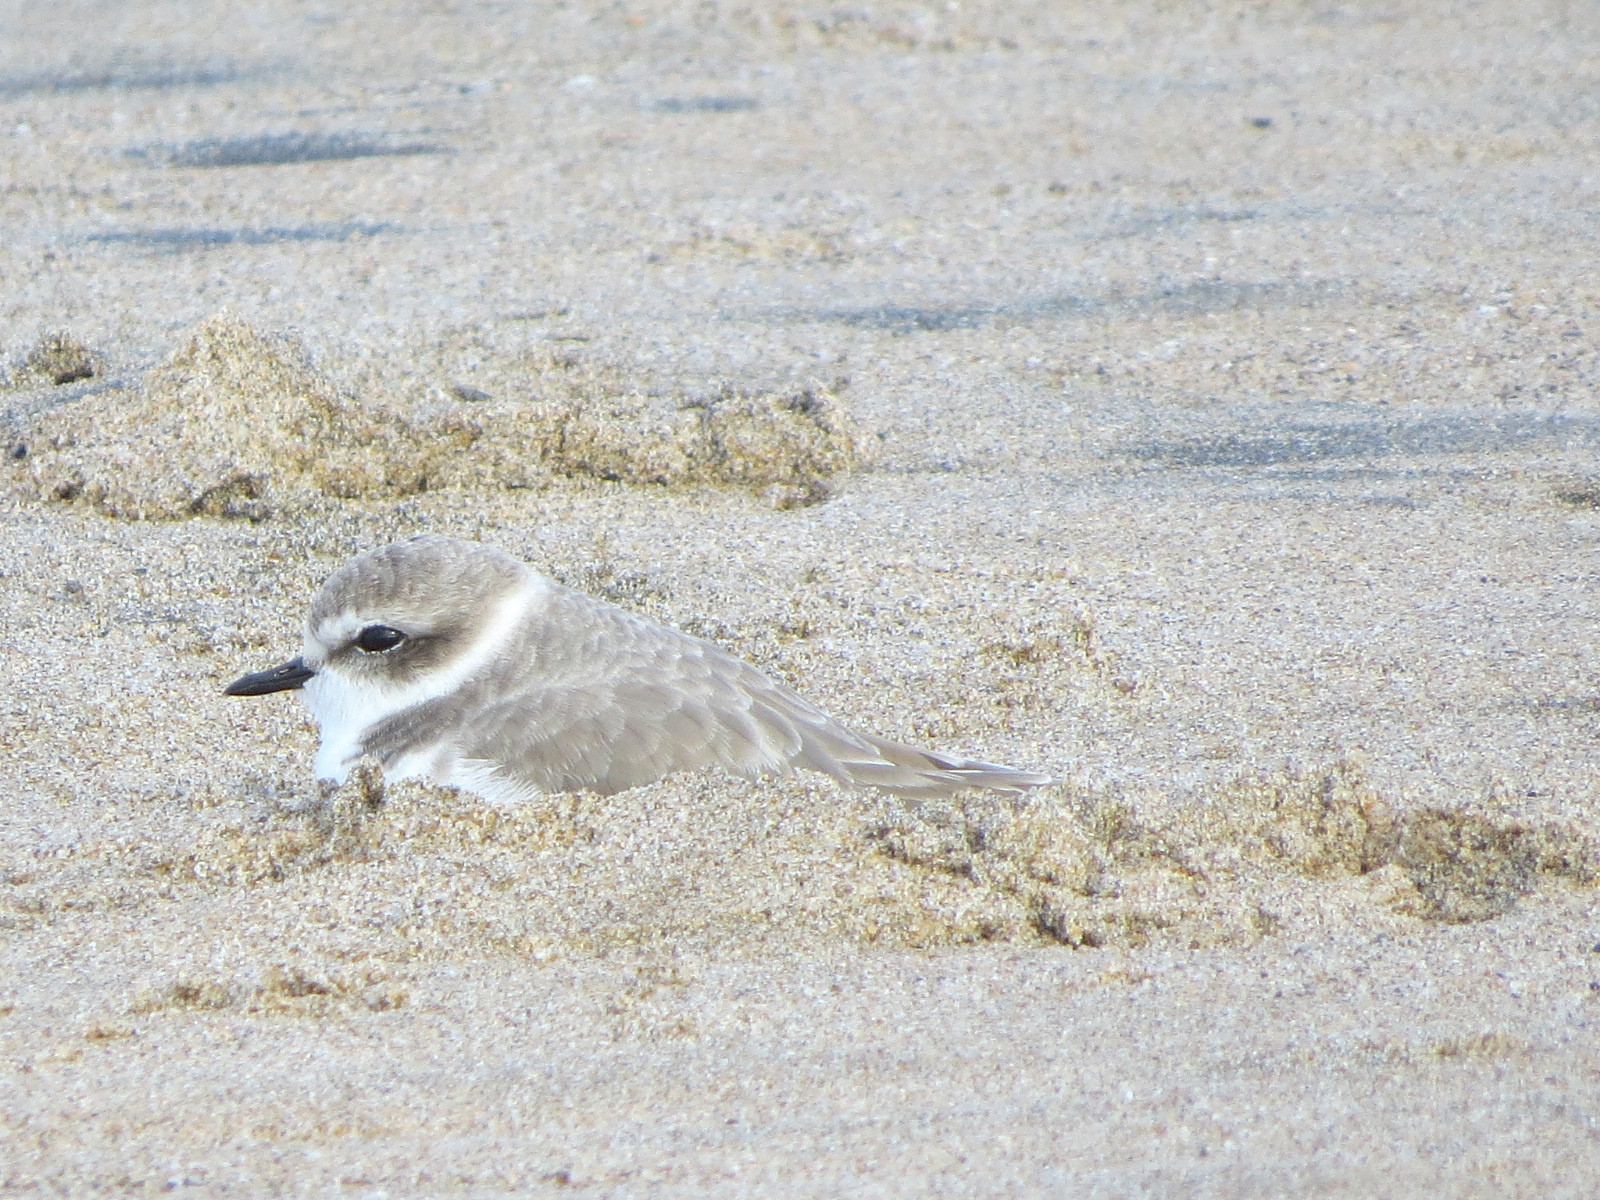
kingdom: Animalia
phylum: Chordata
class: Aves
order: Charadriiformes
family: Charadriidae
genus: Anarhynchus
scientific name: Anarhynchus
